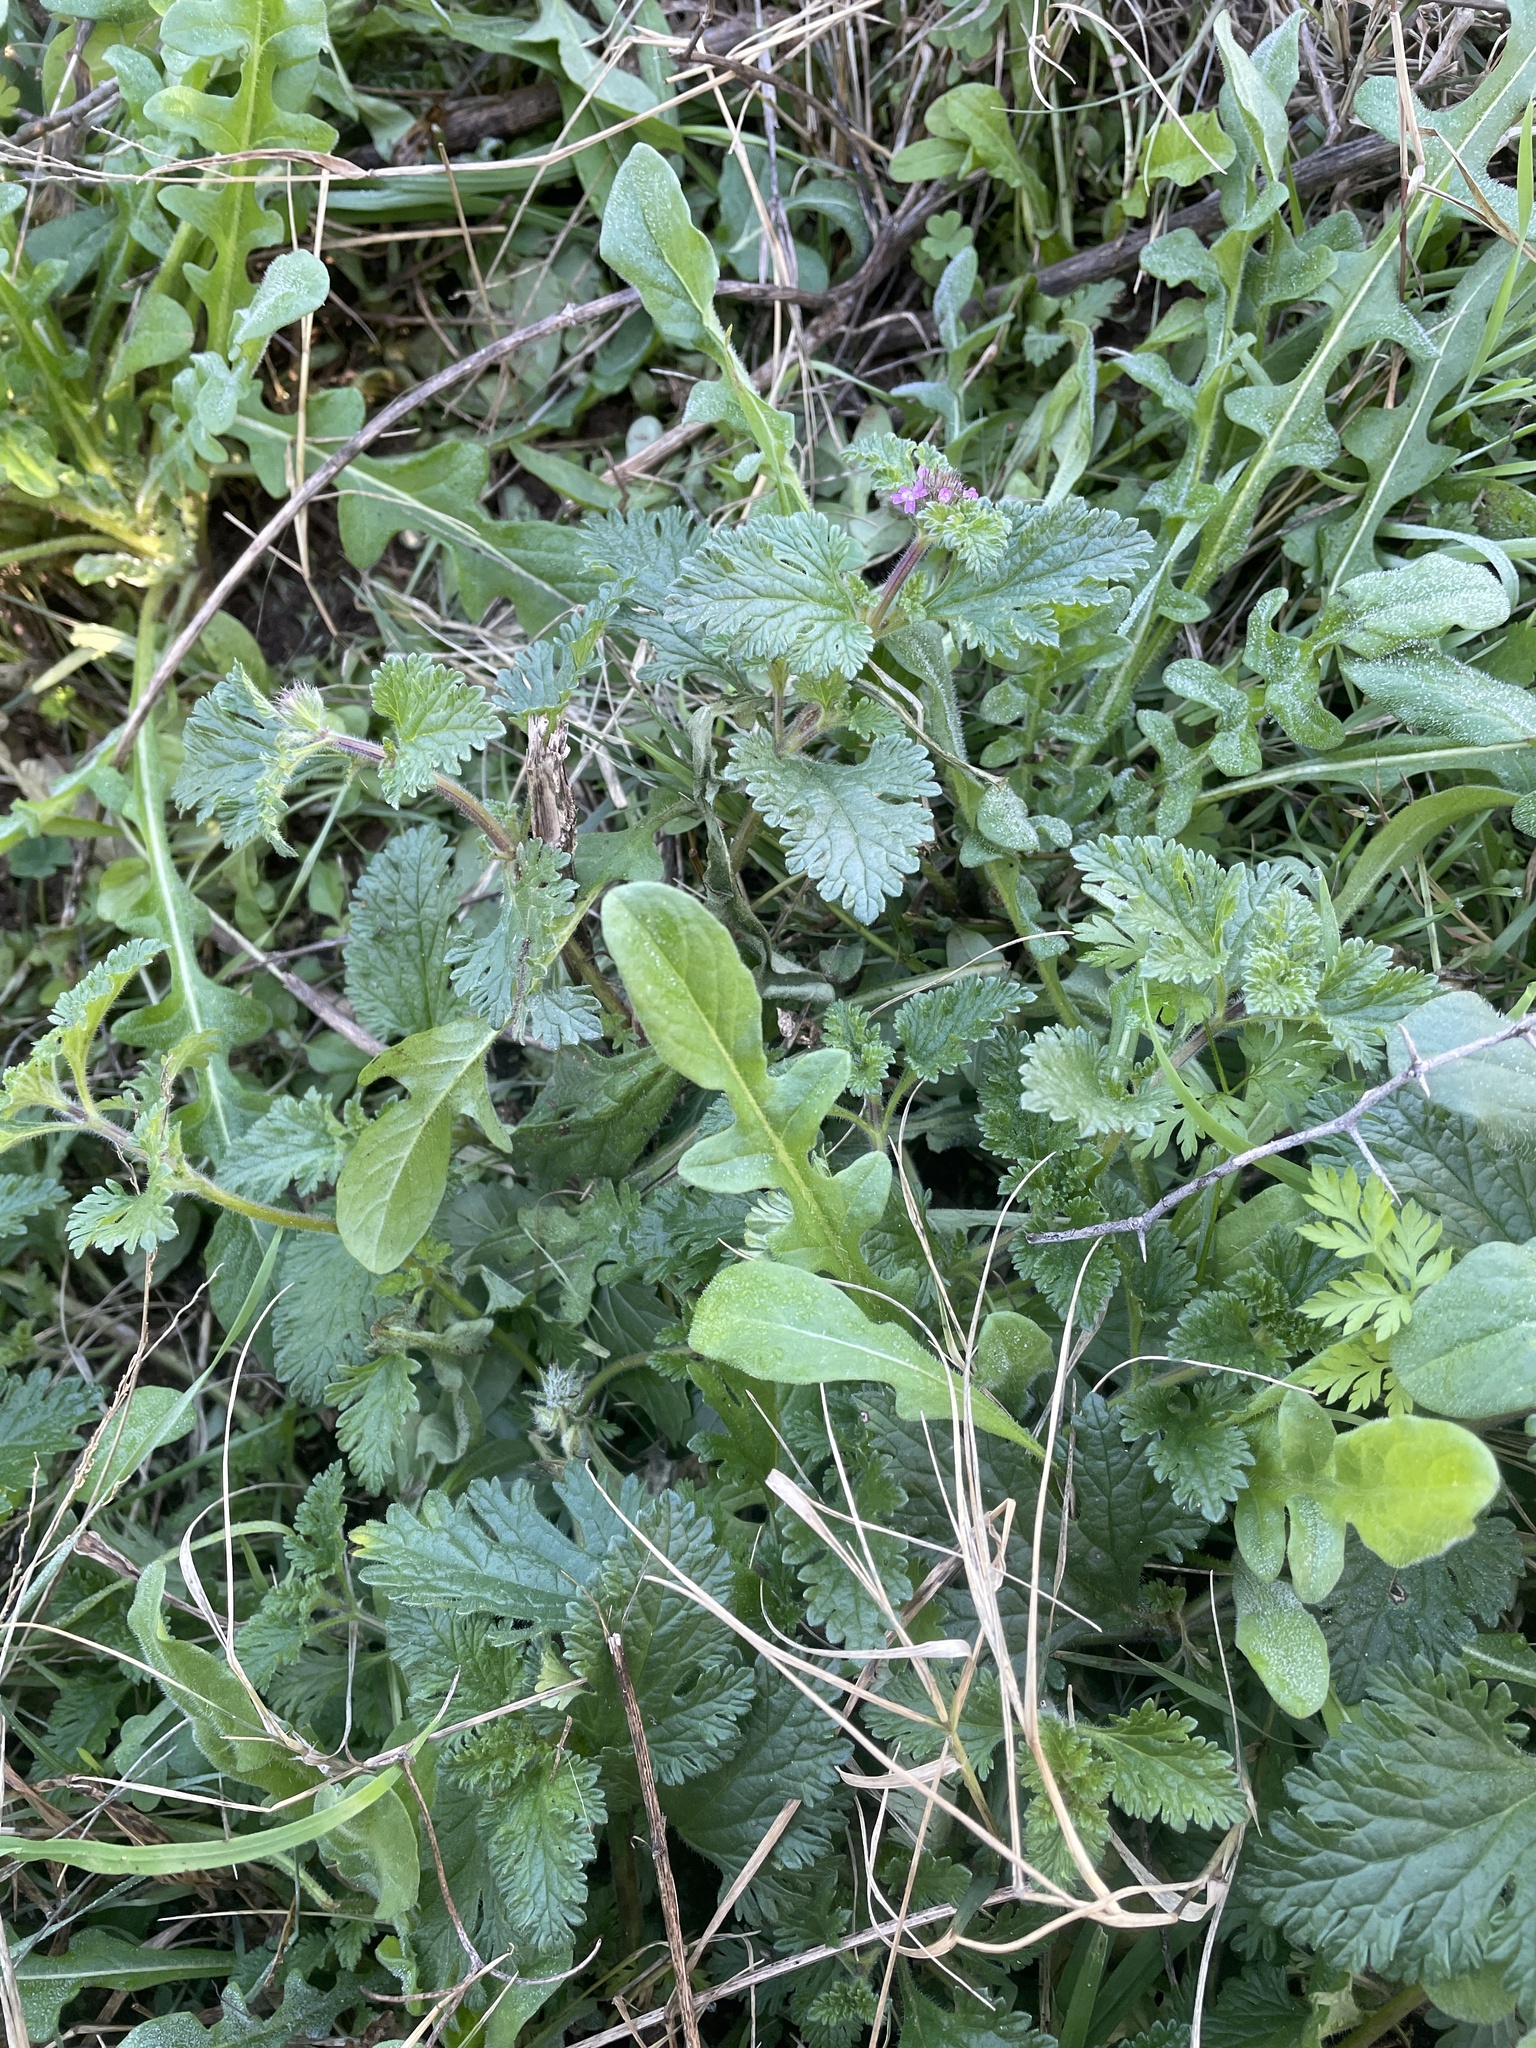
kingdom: Plantae
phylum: Tracheophyta
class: Magnoliopsida
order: Lamiales
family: Verbenaceae
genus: Verbena
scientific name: Verbena pumila
